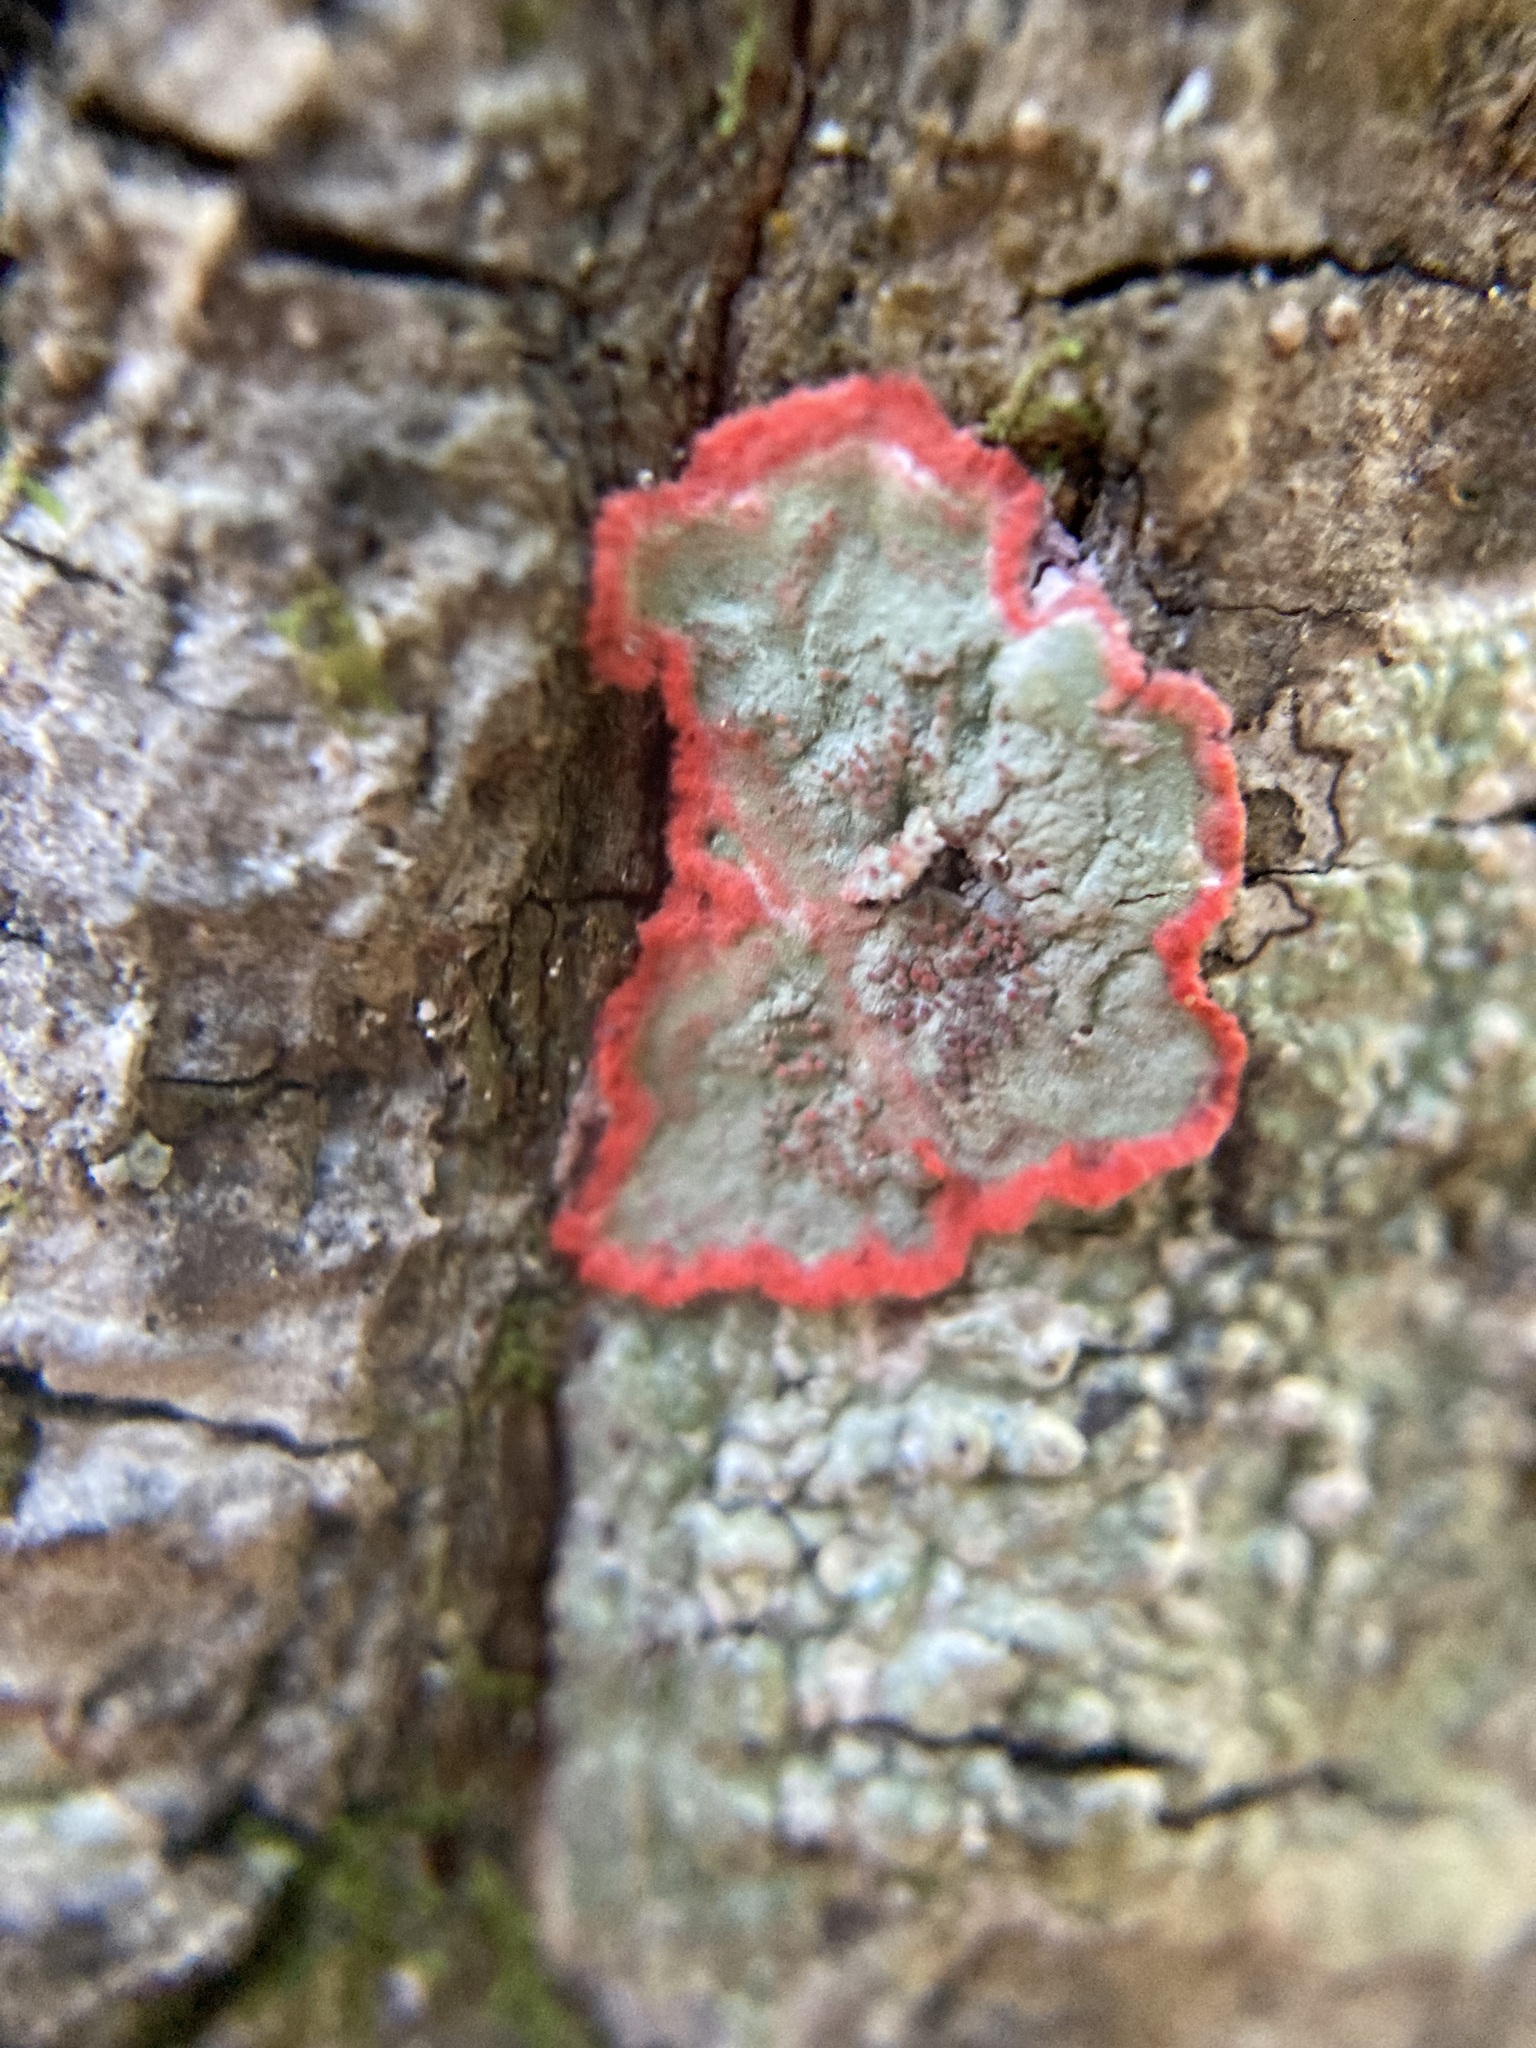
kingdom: Fungi
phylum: Ascomycota
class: Arthoniomycetes
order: Arthoniales
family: Arthoniaceae
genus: Herpothallon
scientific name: Herpothallon rubrocinctum
